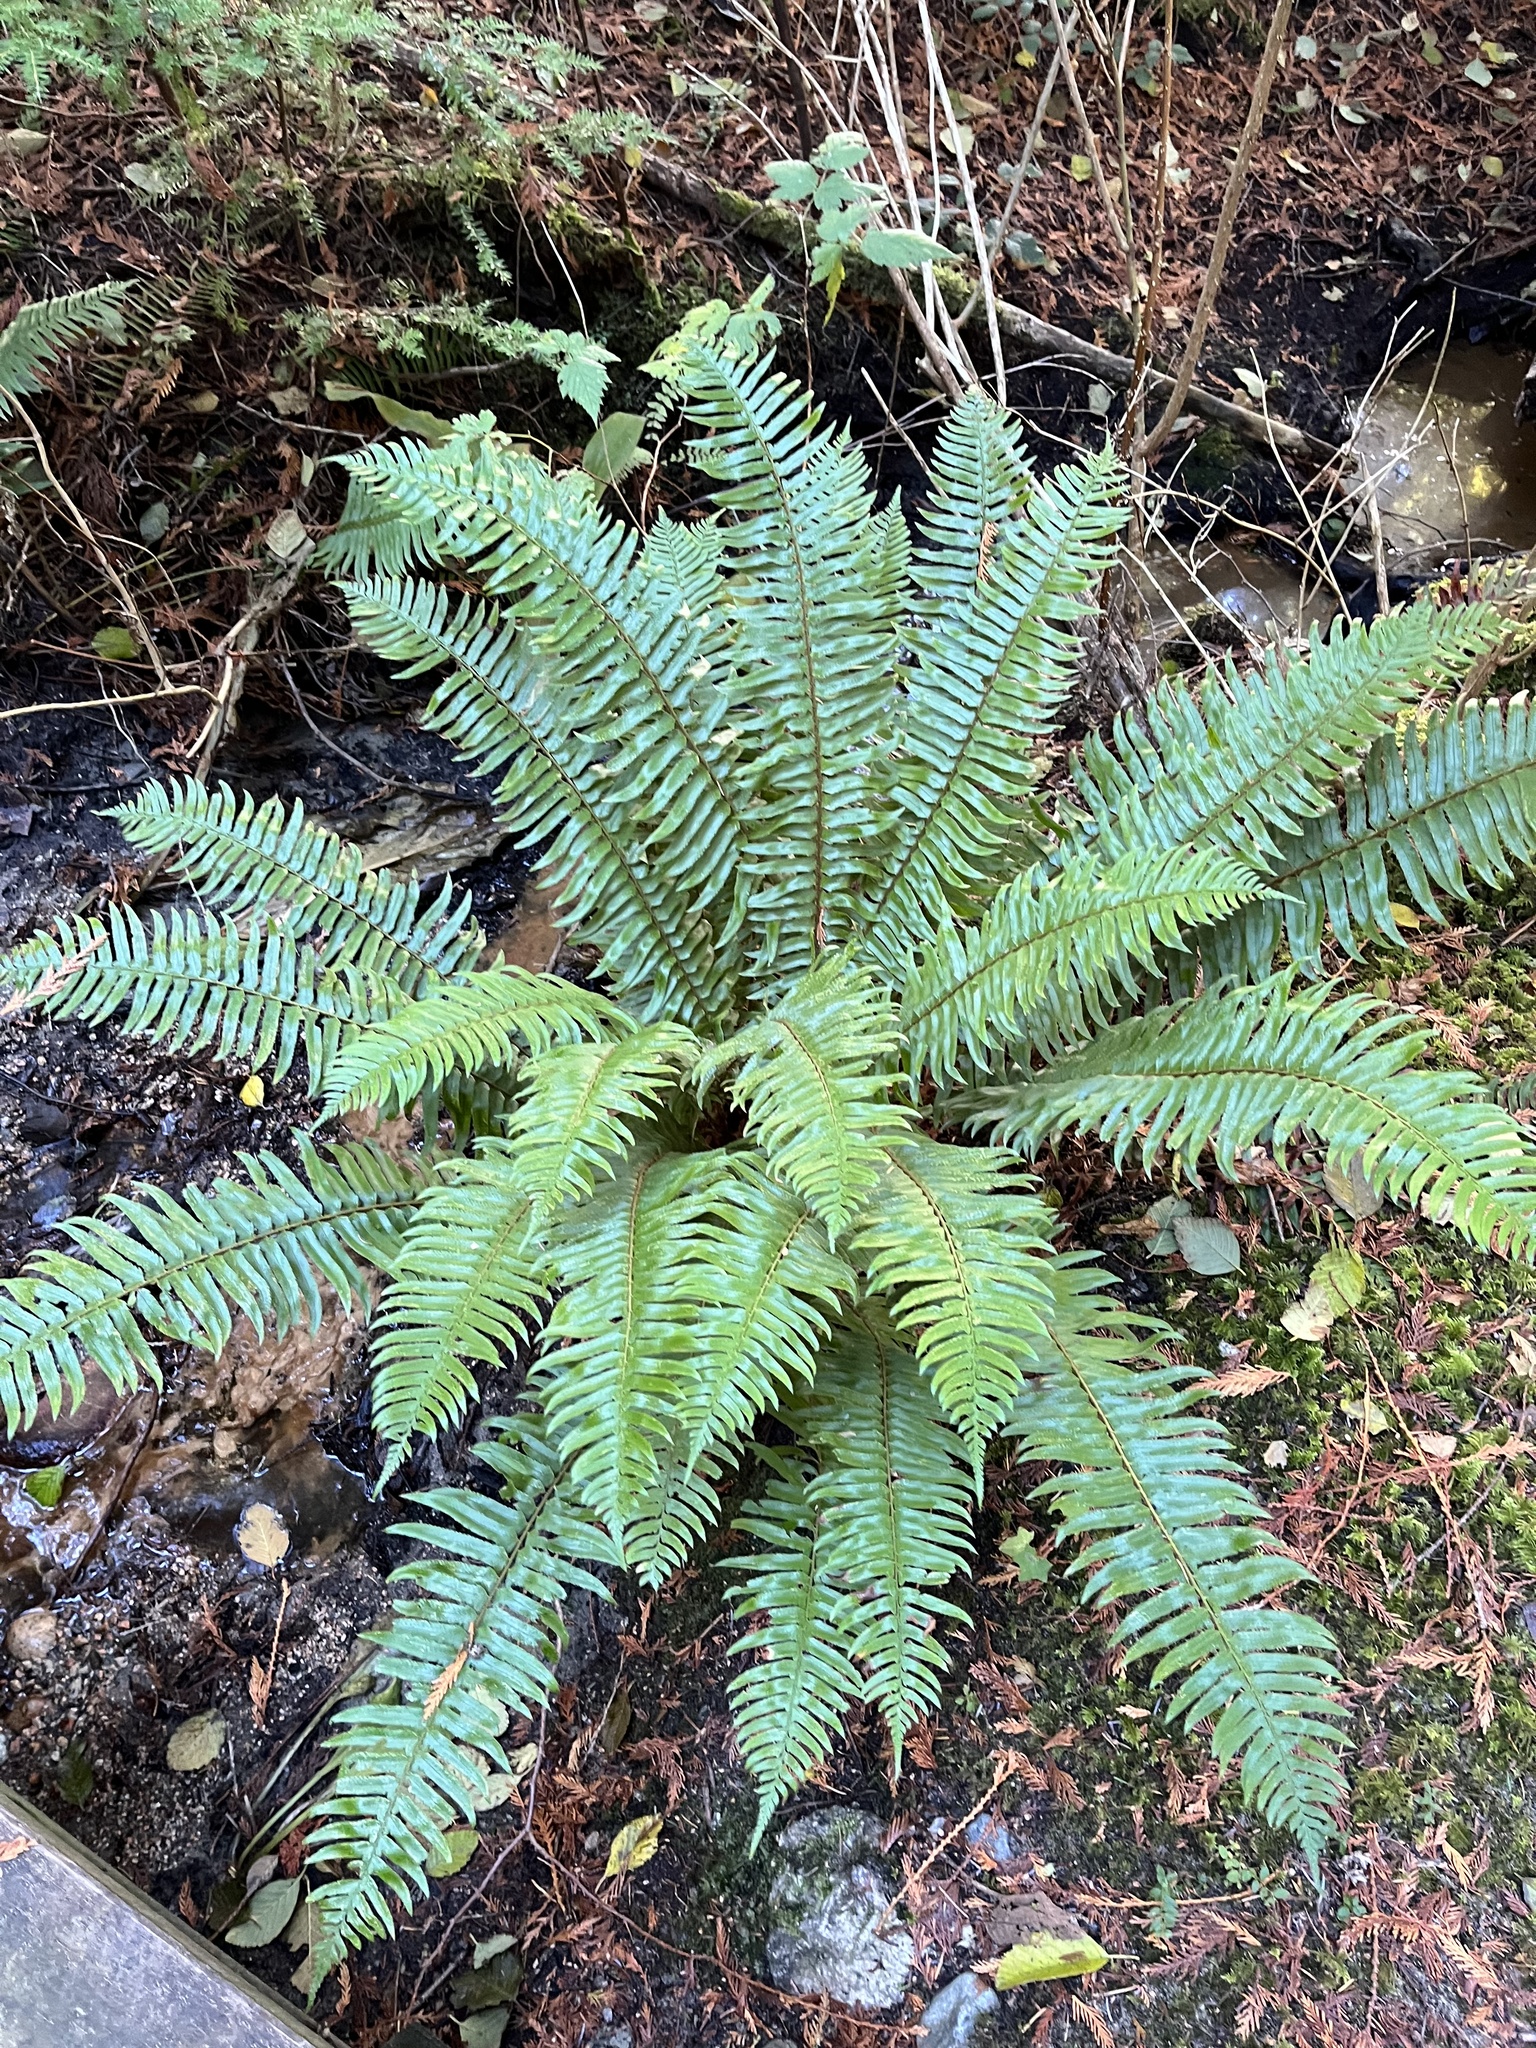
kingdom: Plantae
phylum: Tracheophyta
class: Polypodiopsida
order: Polypodiales
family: Dryopteridaceae
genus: Polystichum
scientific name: Polystichum munitum
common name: Western sword-fern
